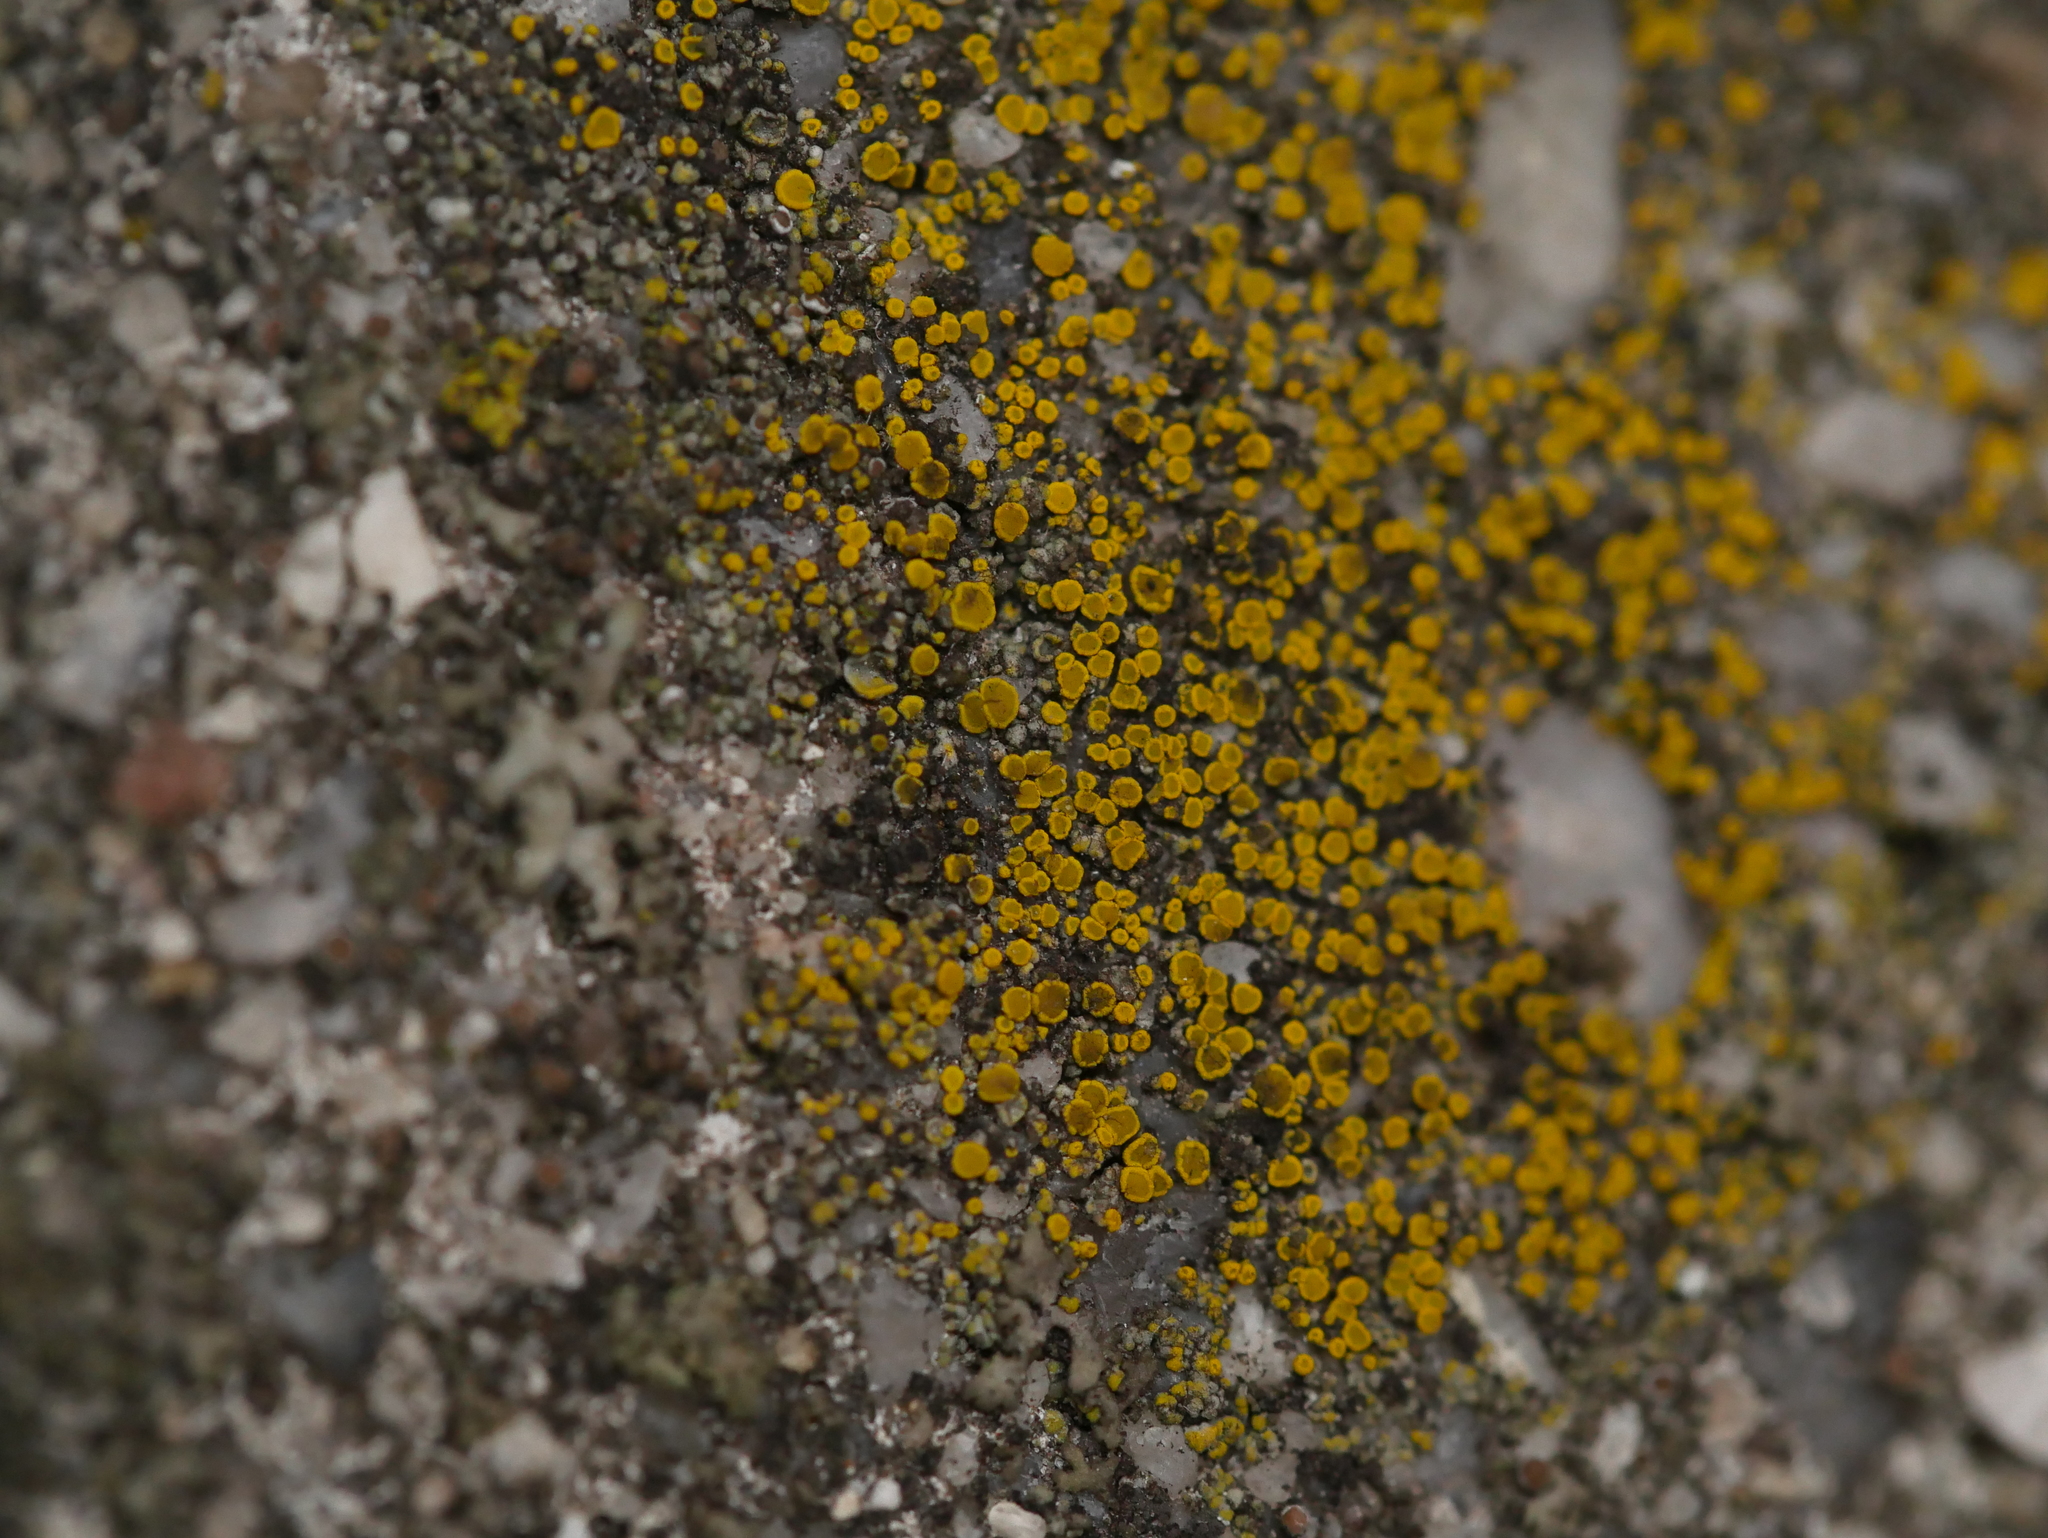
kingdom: Fungi
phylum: Ascomycota
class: Candelariomycetes
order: Candelariales
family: Candelariaceae
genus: Candelariella
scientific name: Candelariella vitellina
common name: Common goldspeck
